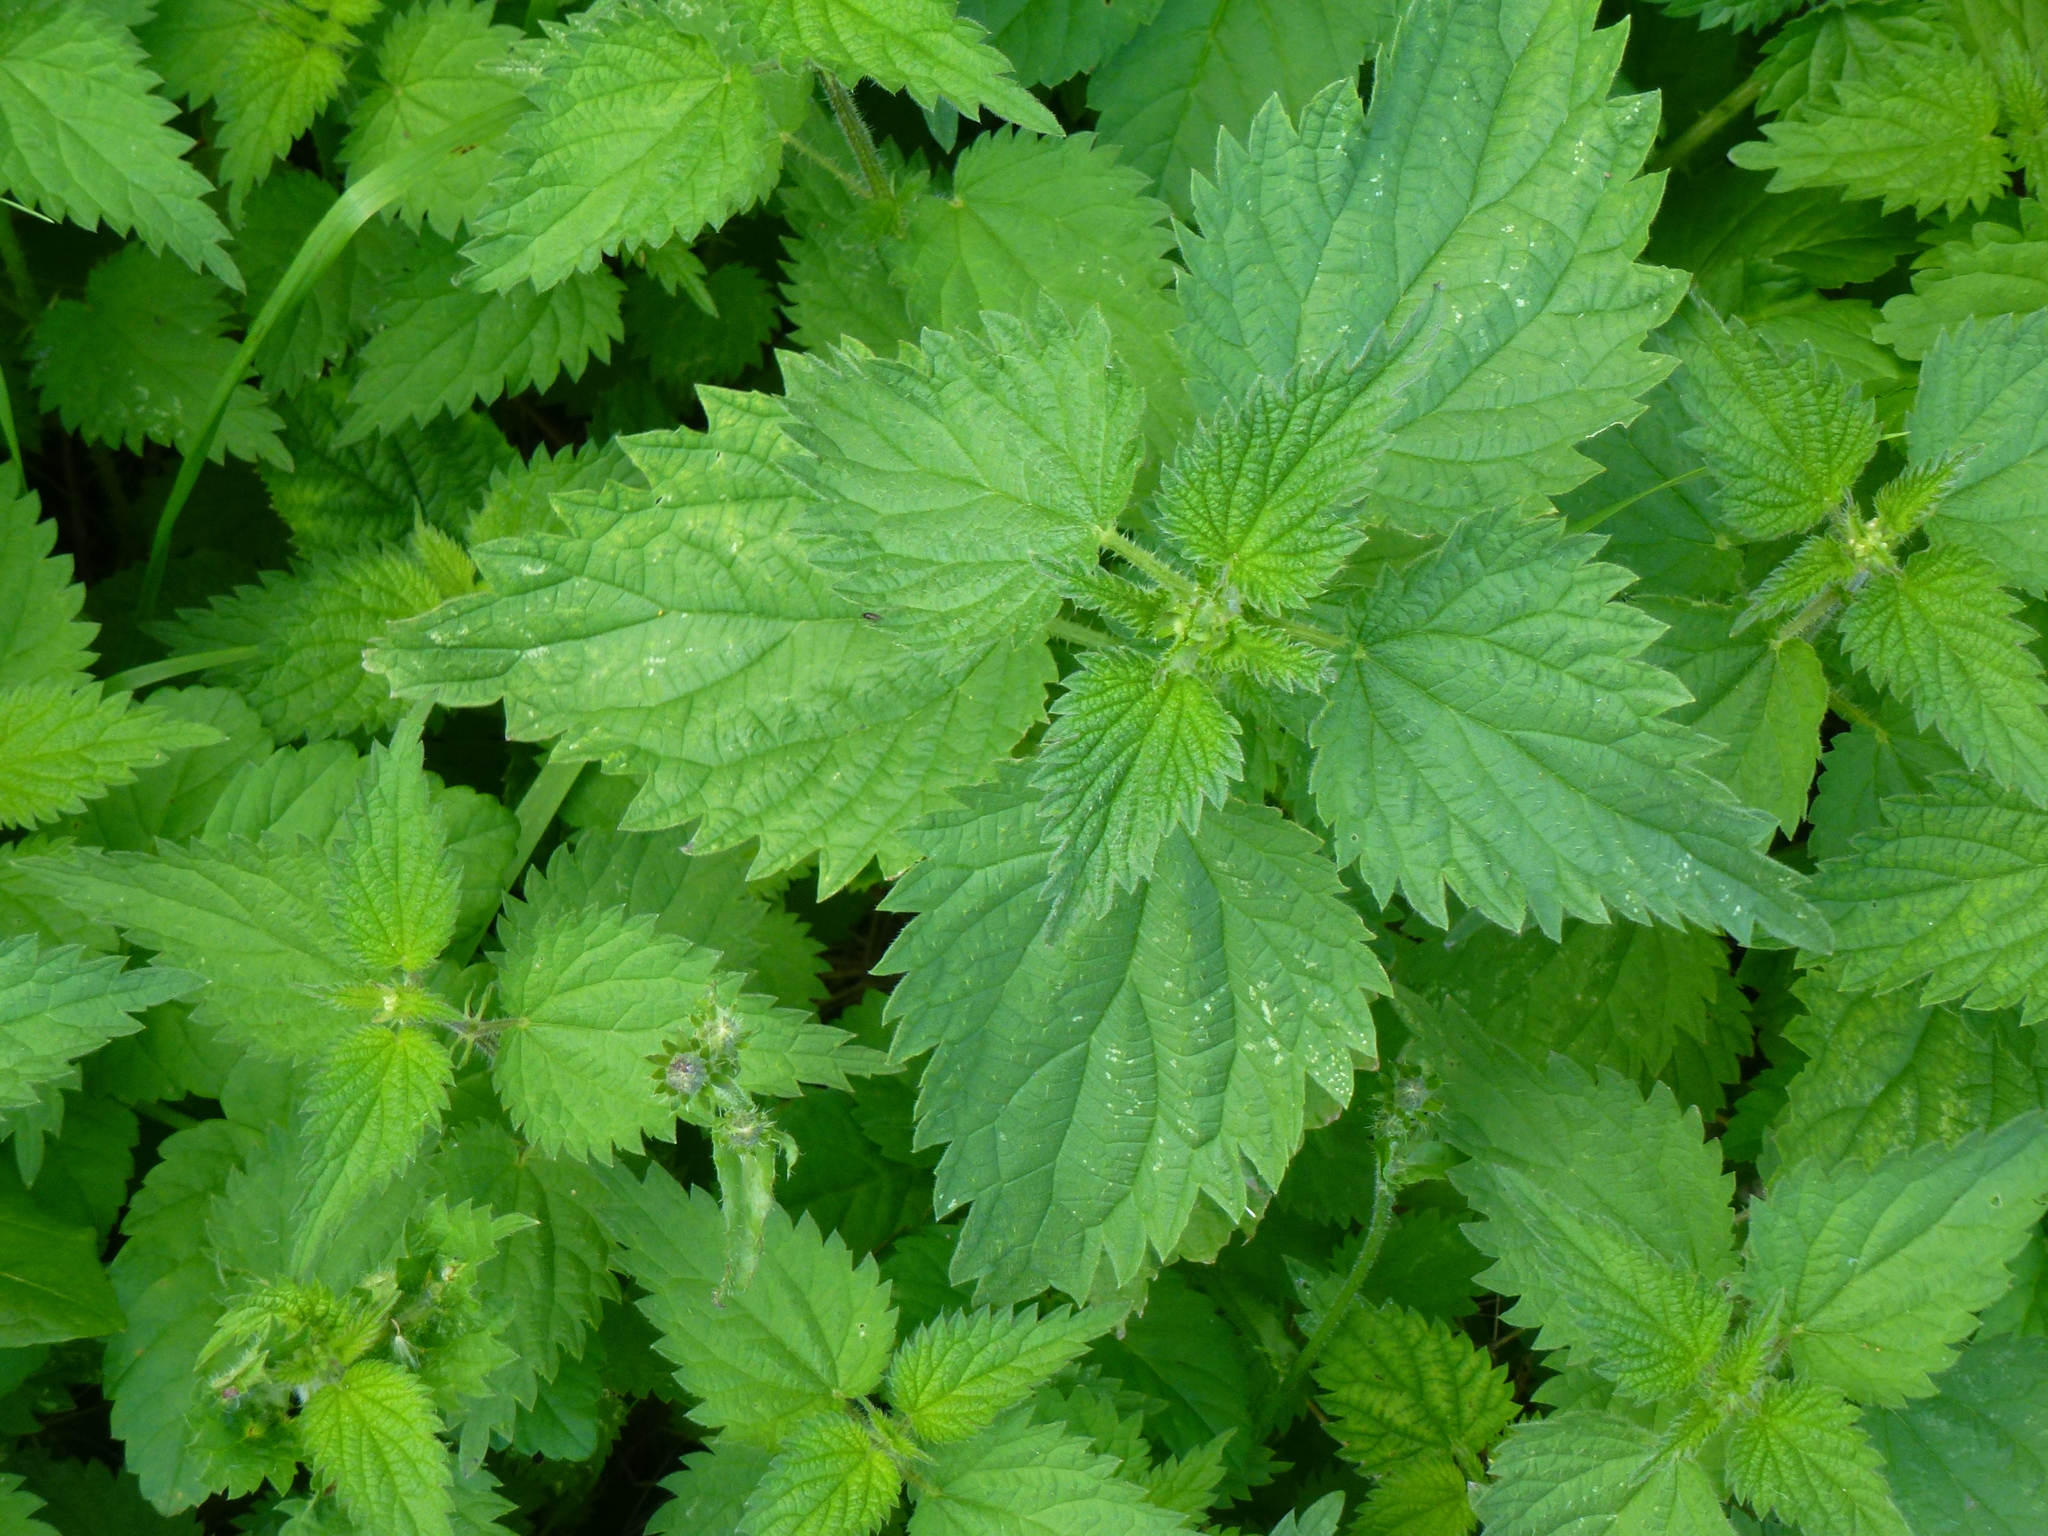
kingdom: Plantae
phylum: Tracheophyta
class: Magnoliopsida
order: Rosales
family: Urticaceae
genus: Urtica
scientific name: Urtica dioica
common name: Common nettle
